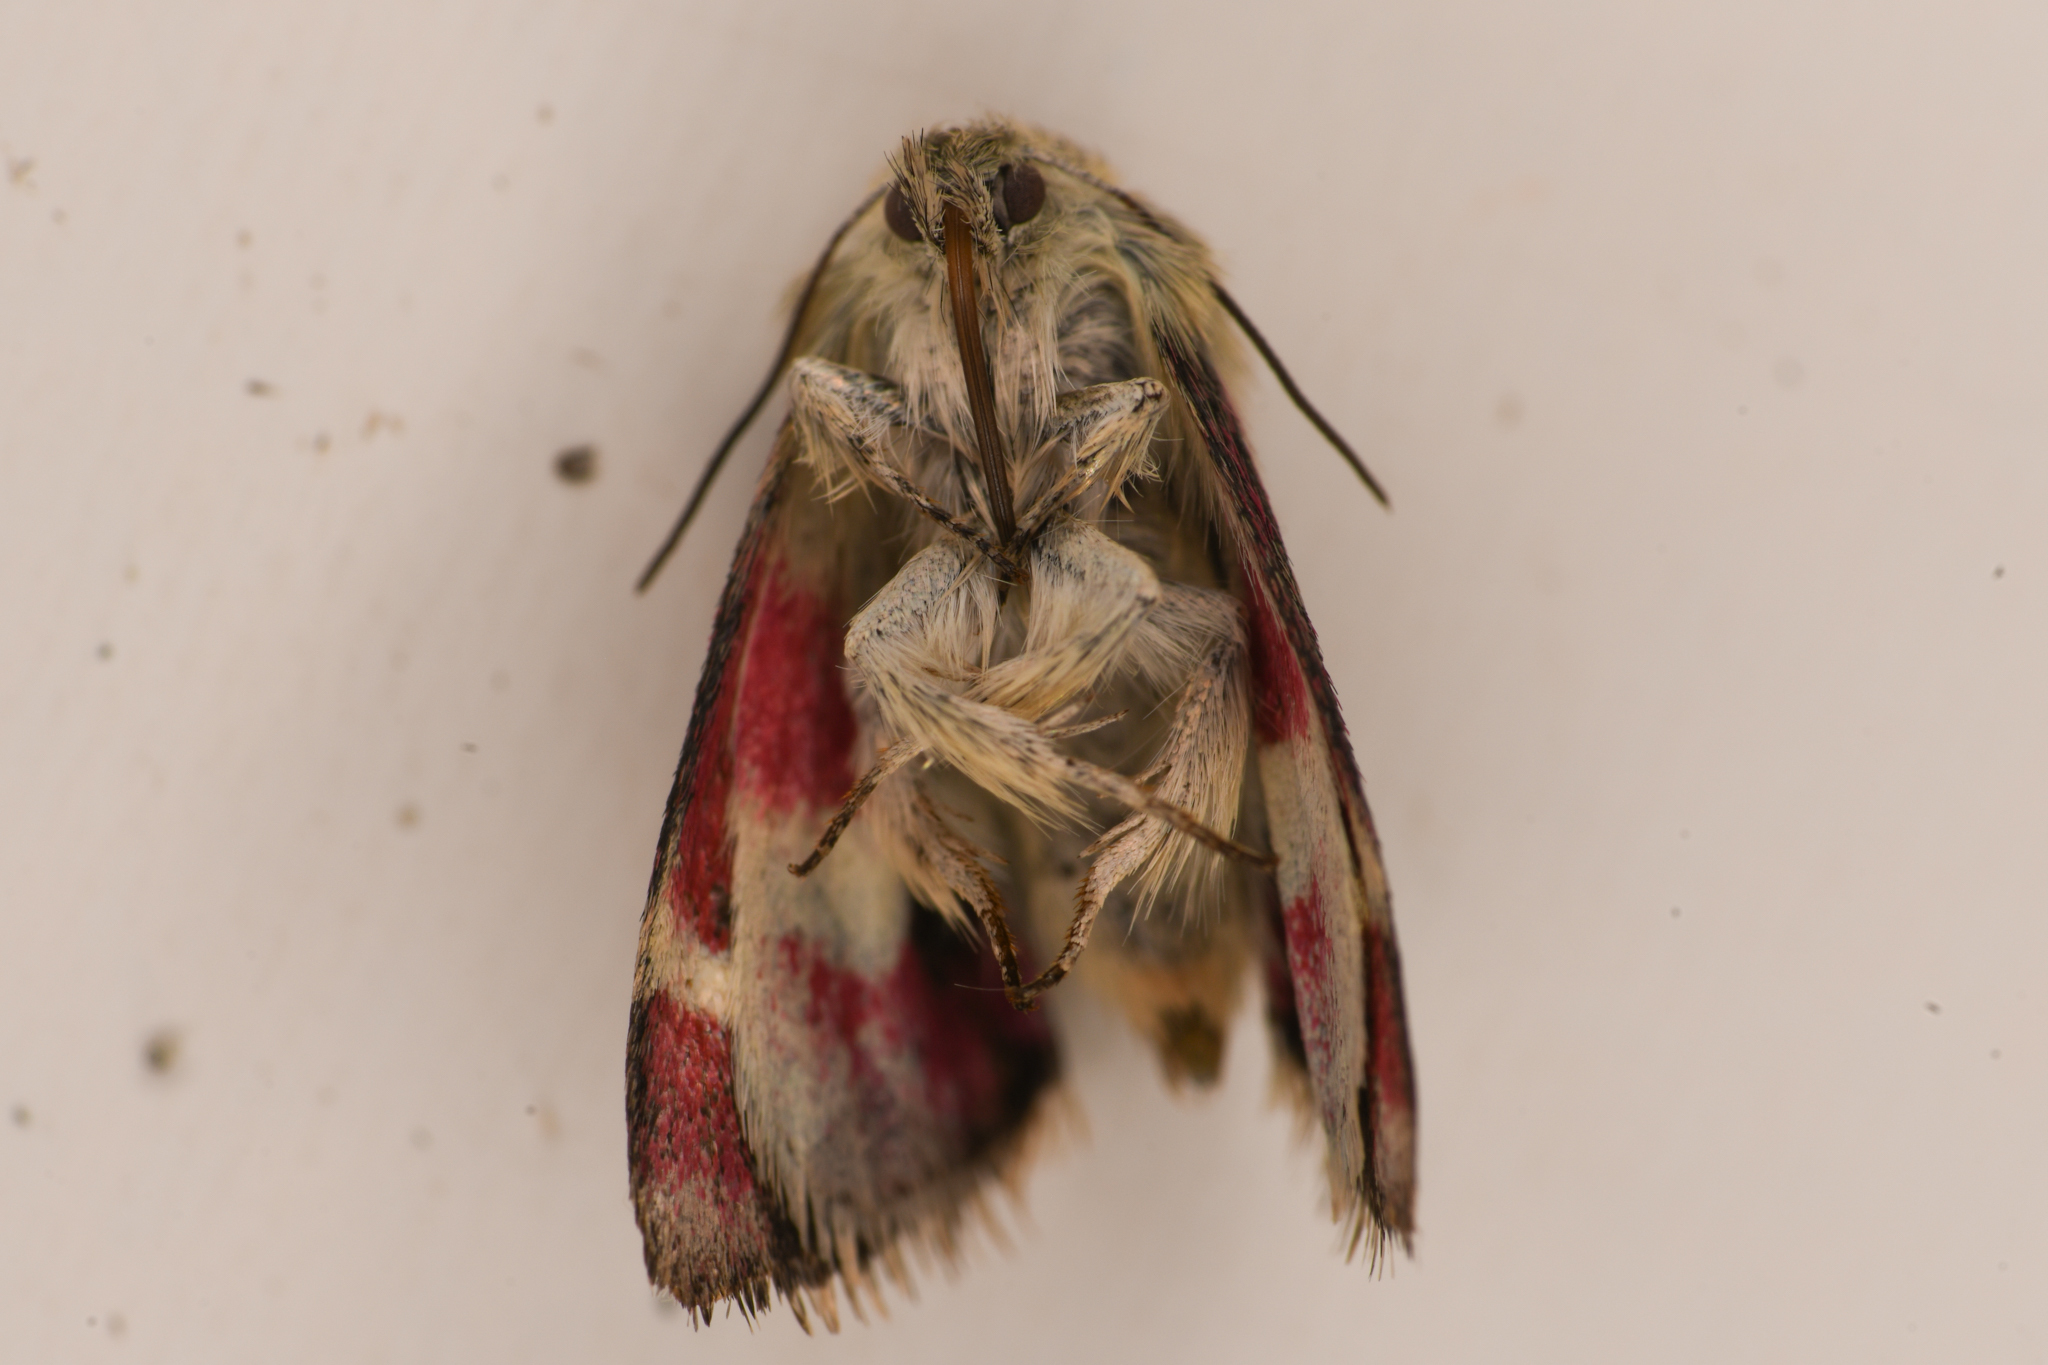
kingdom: Animalia
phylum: Arthropoda
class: Insecta
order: Lepidoptera
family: Noctuidae
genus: Eutricopis
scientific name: Eutricopis nexilis
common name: White-spotted midget moth
